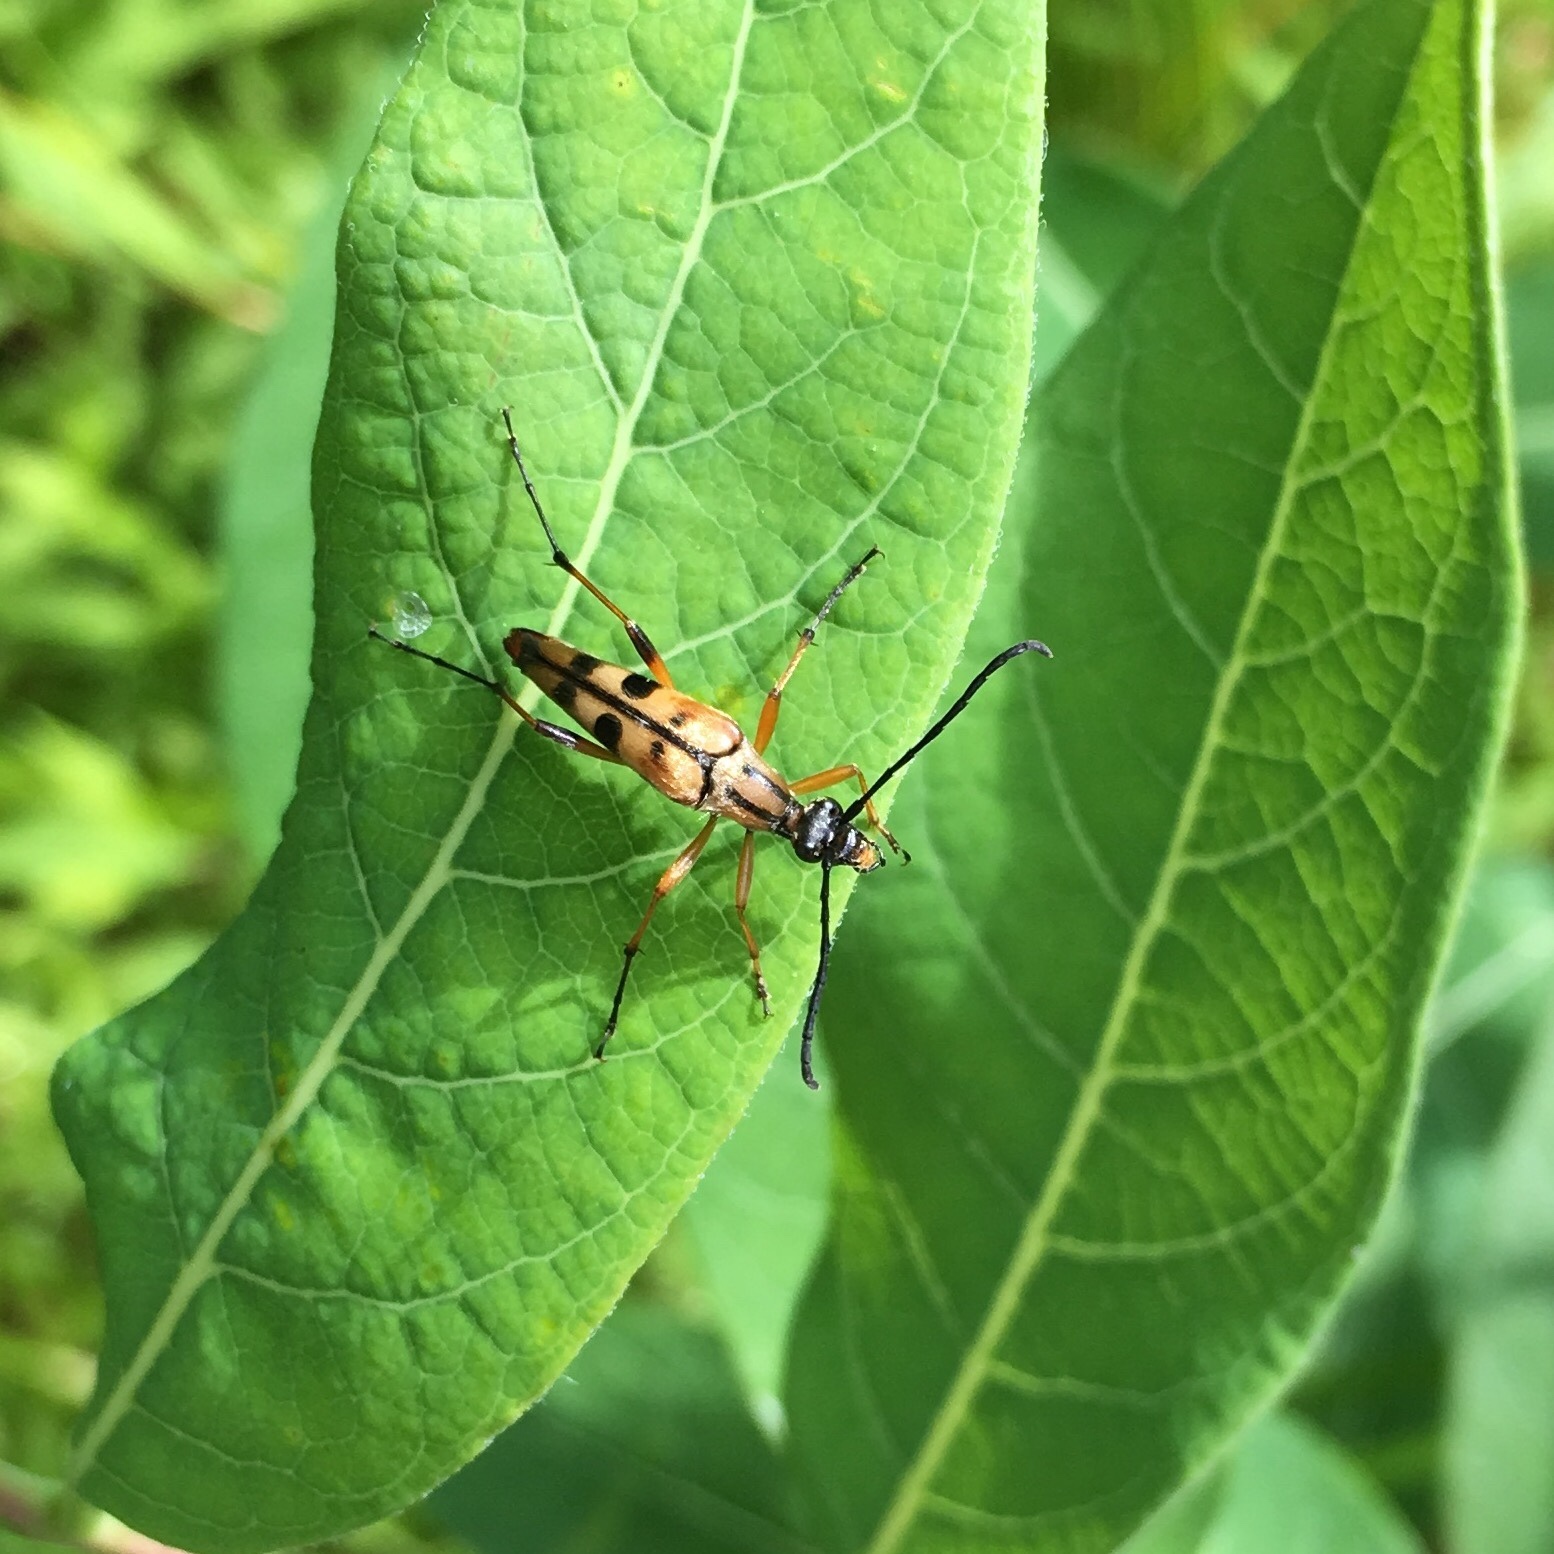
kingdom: Animalia
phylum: Arthropoda
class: Insecta
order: Coleoptera
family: Cerambycidae
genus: Strangalia
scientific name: Strangalia famelica
